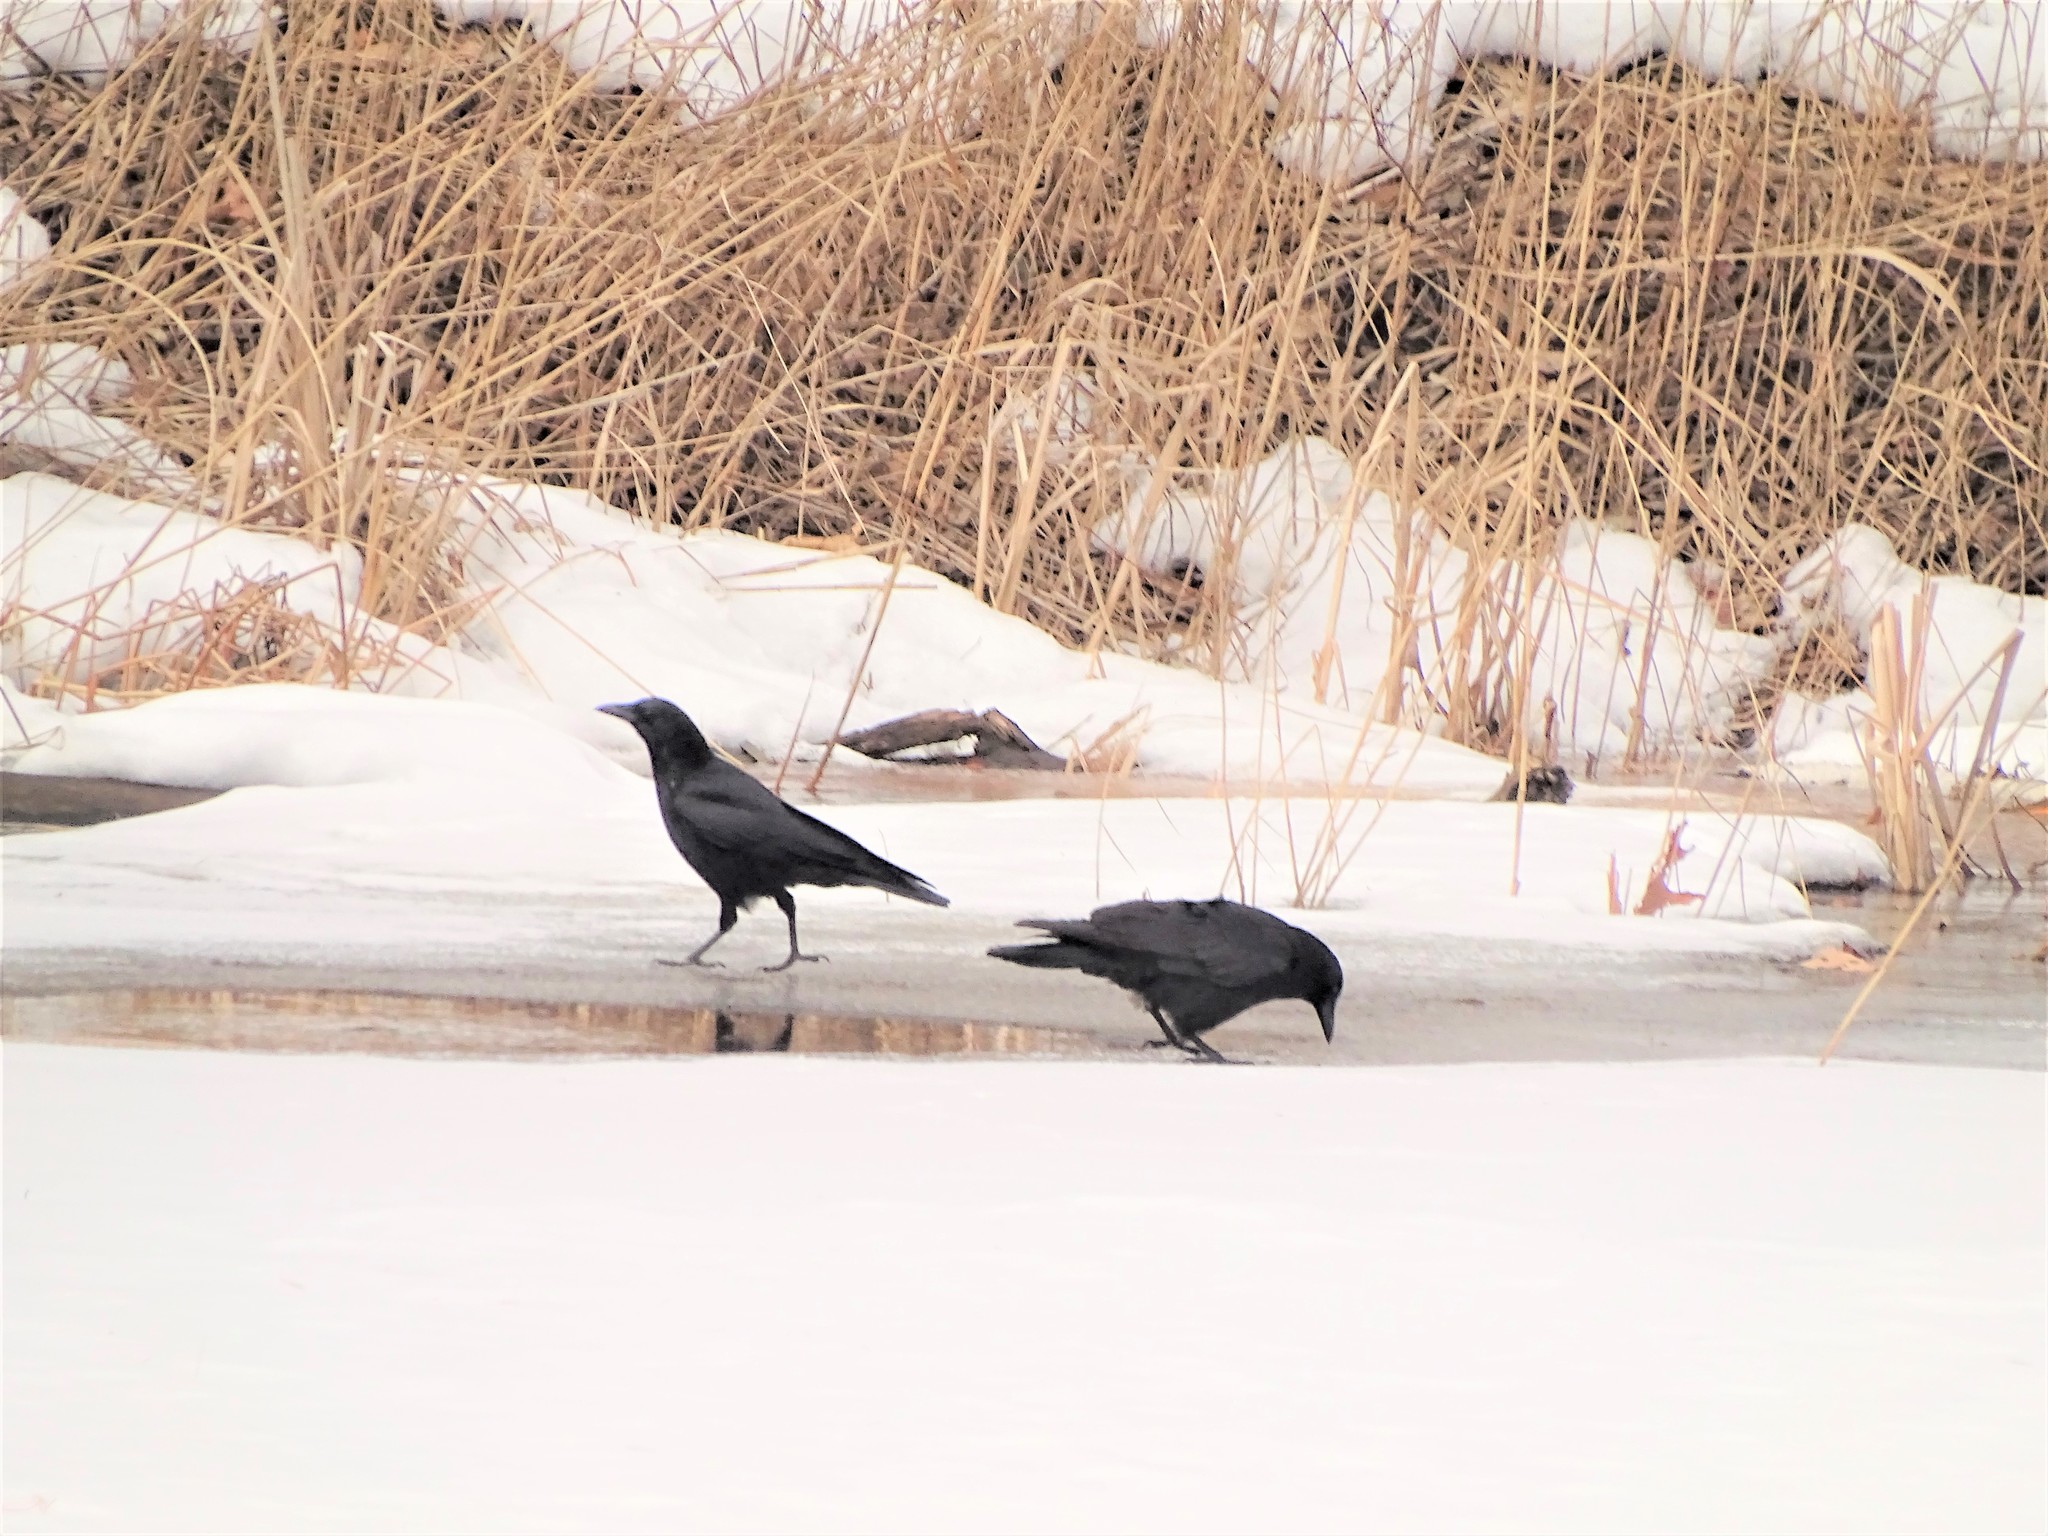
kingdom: Animalia
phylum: Chordata
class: Aves
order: Passeriformes
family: Corvidae
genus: Corvus
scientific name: Corvus brachyrhynchos
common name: American crow
